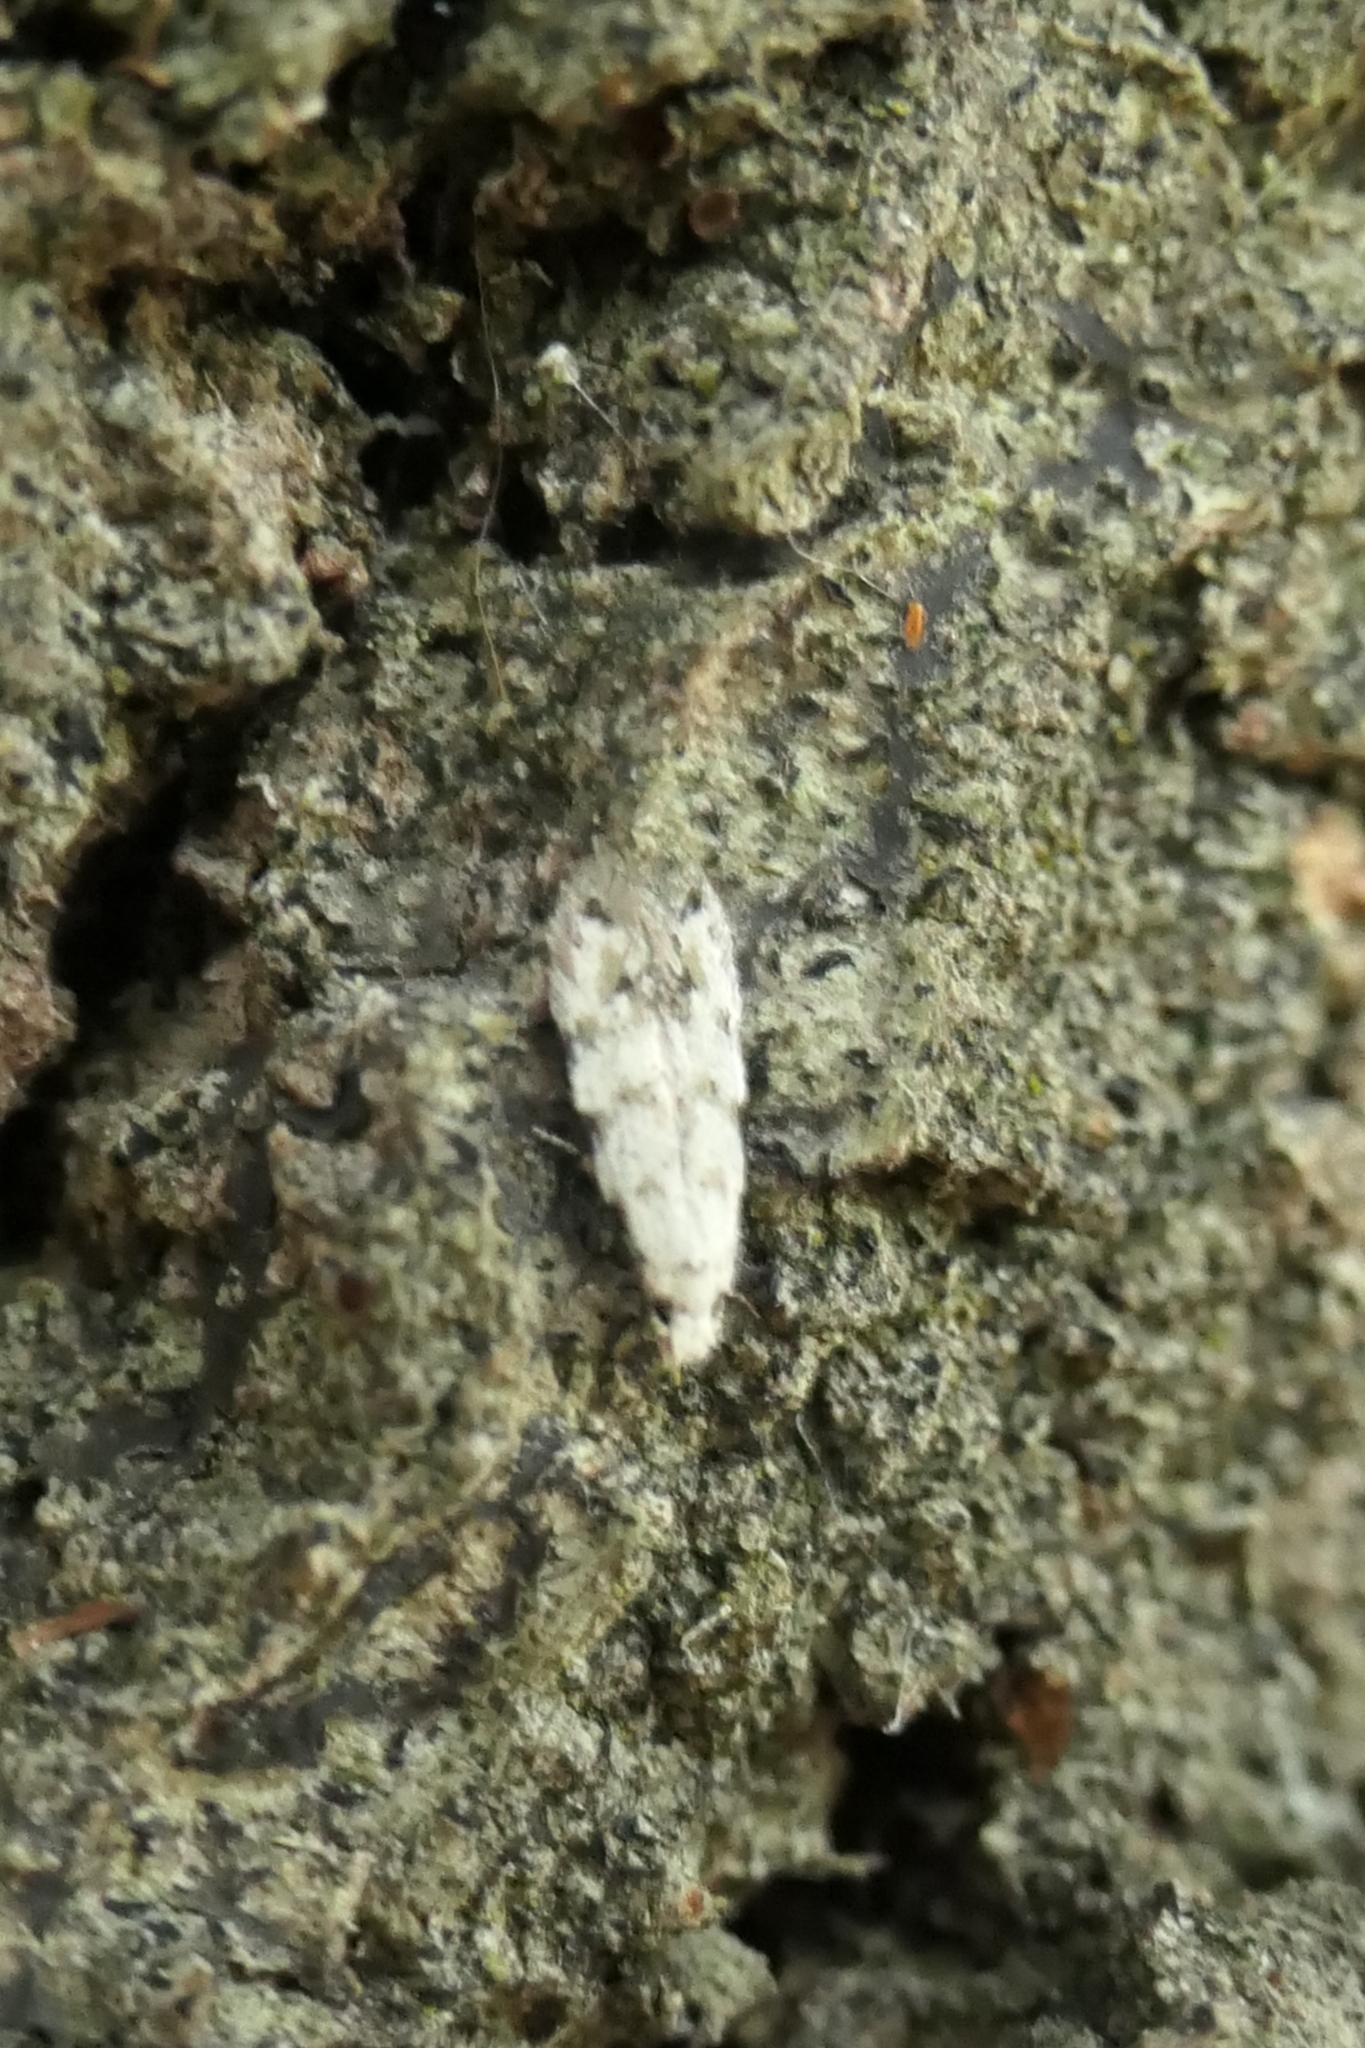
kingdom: Animalia
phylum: Arthropoda
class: Insecta
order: Lepidoptera
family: Tineidae
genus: Crypsitricha
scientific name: Crypsitricha stereota
